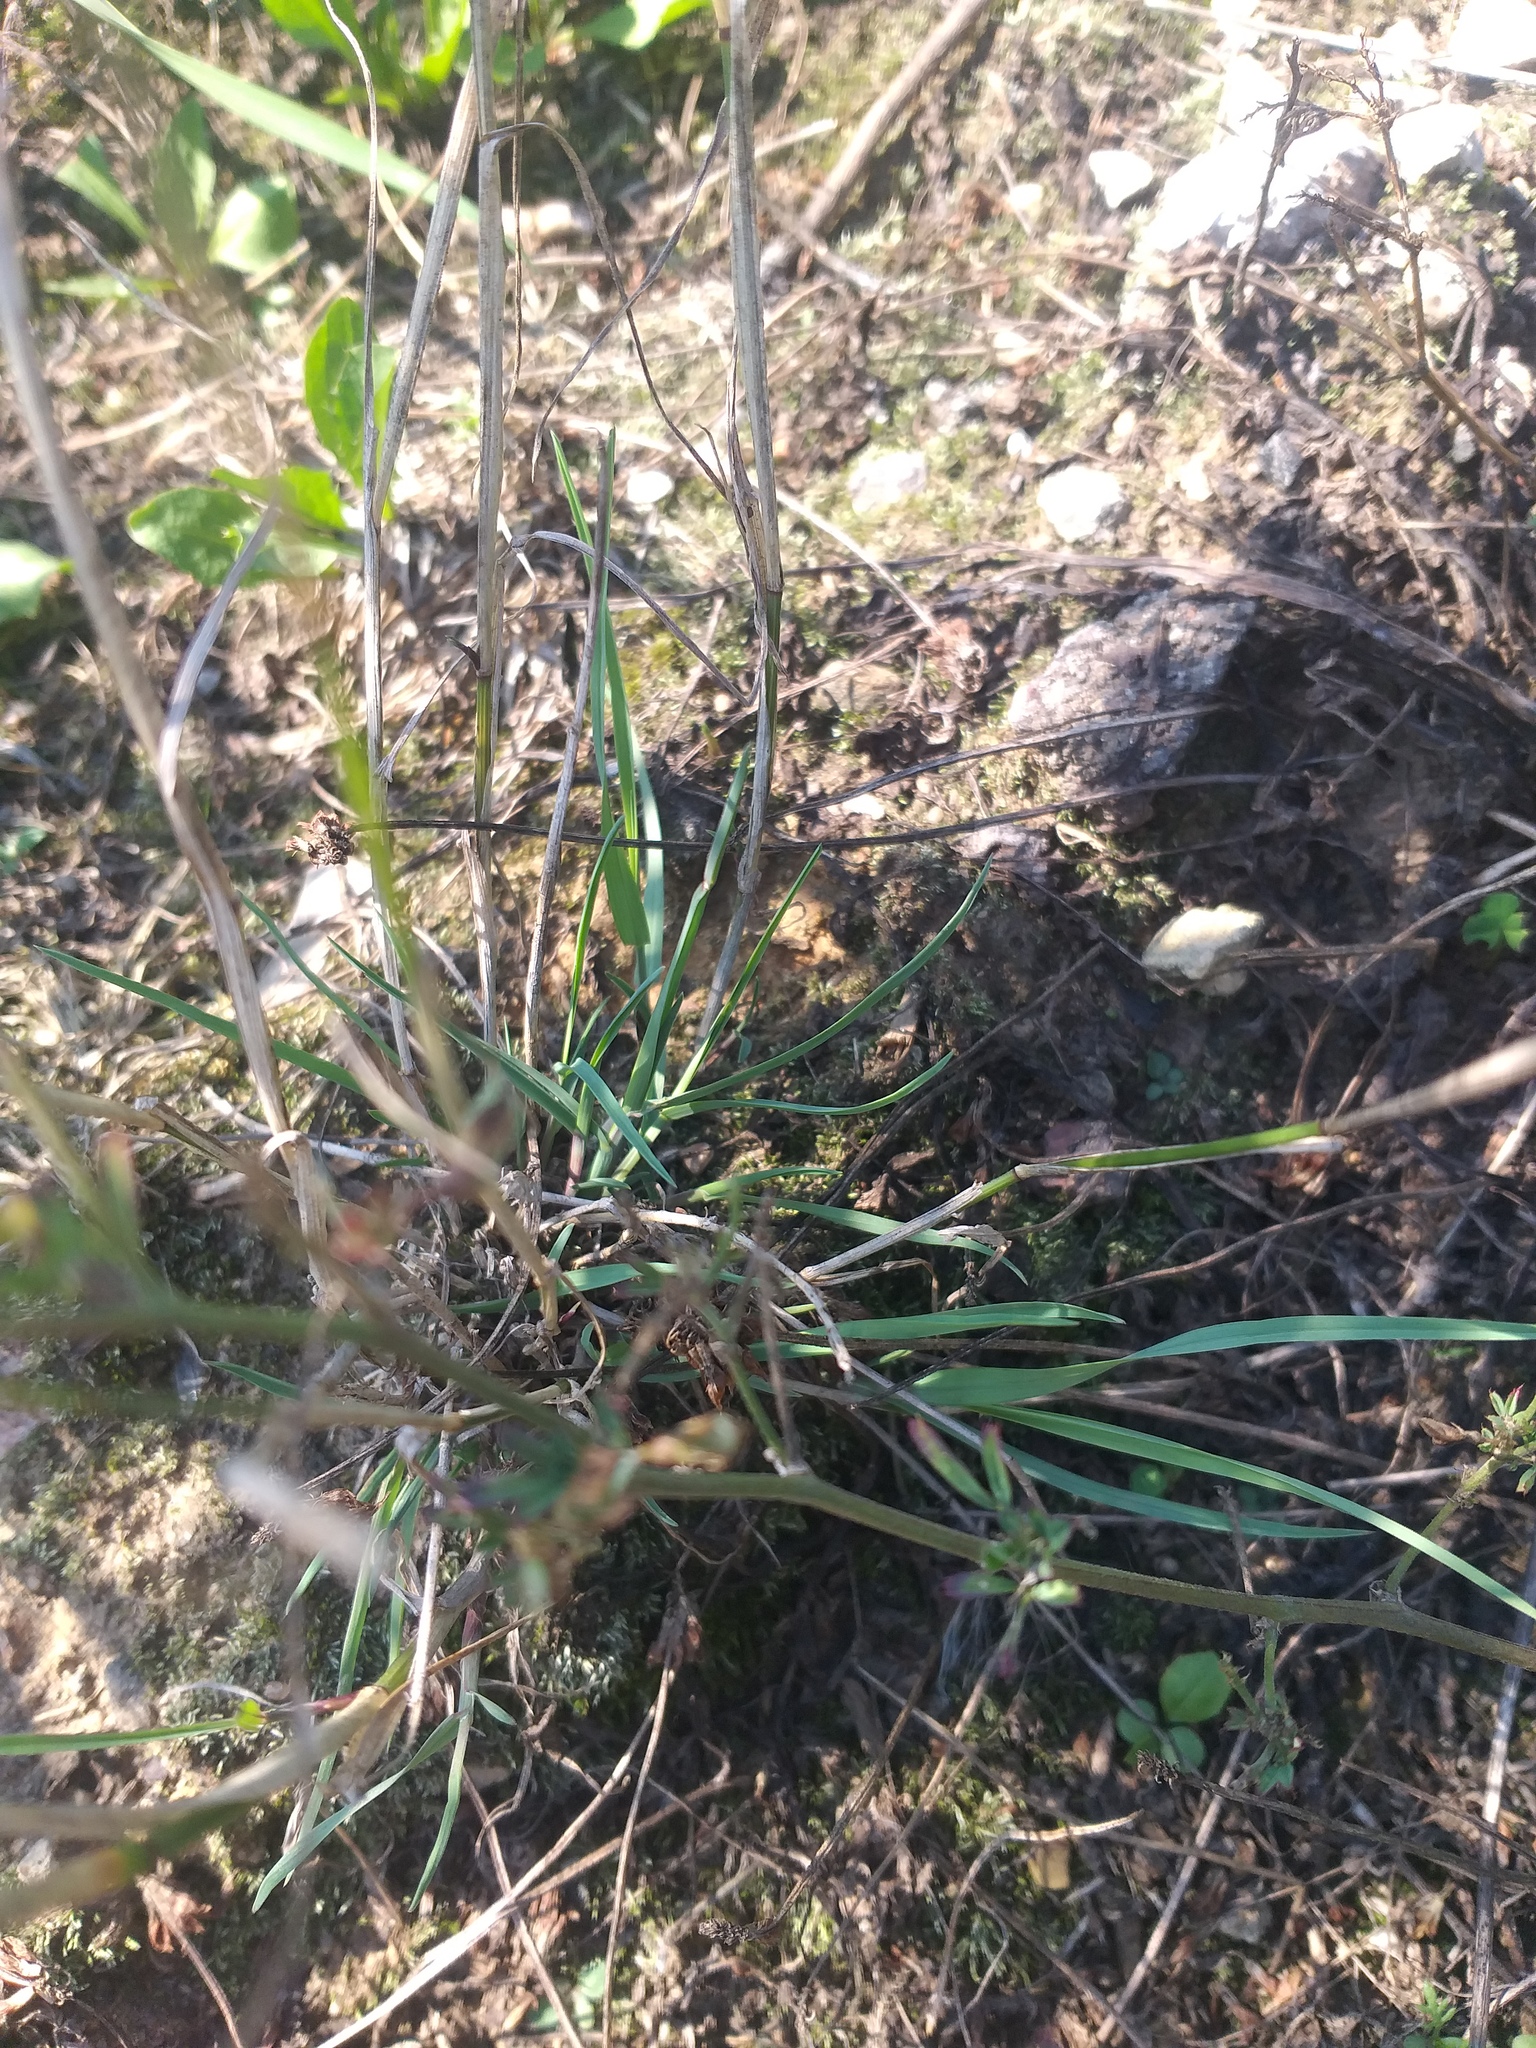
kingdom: Plantae
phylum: Tracheophyta
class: Liliopsida
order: Poales
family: Poaceae
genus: Poa
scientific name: Poa compressa
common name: Canada bluegrass
